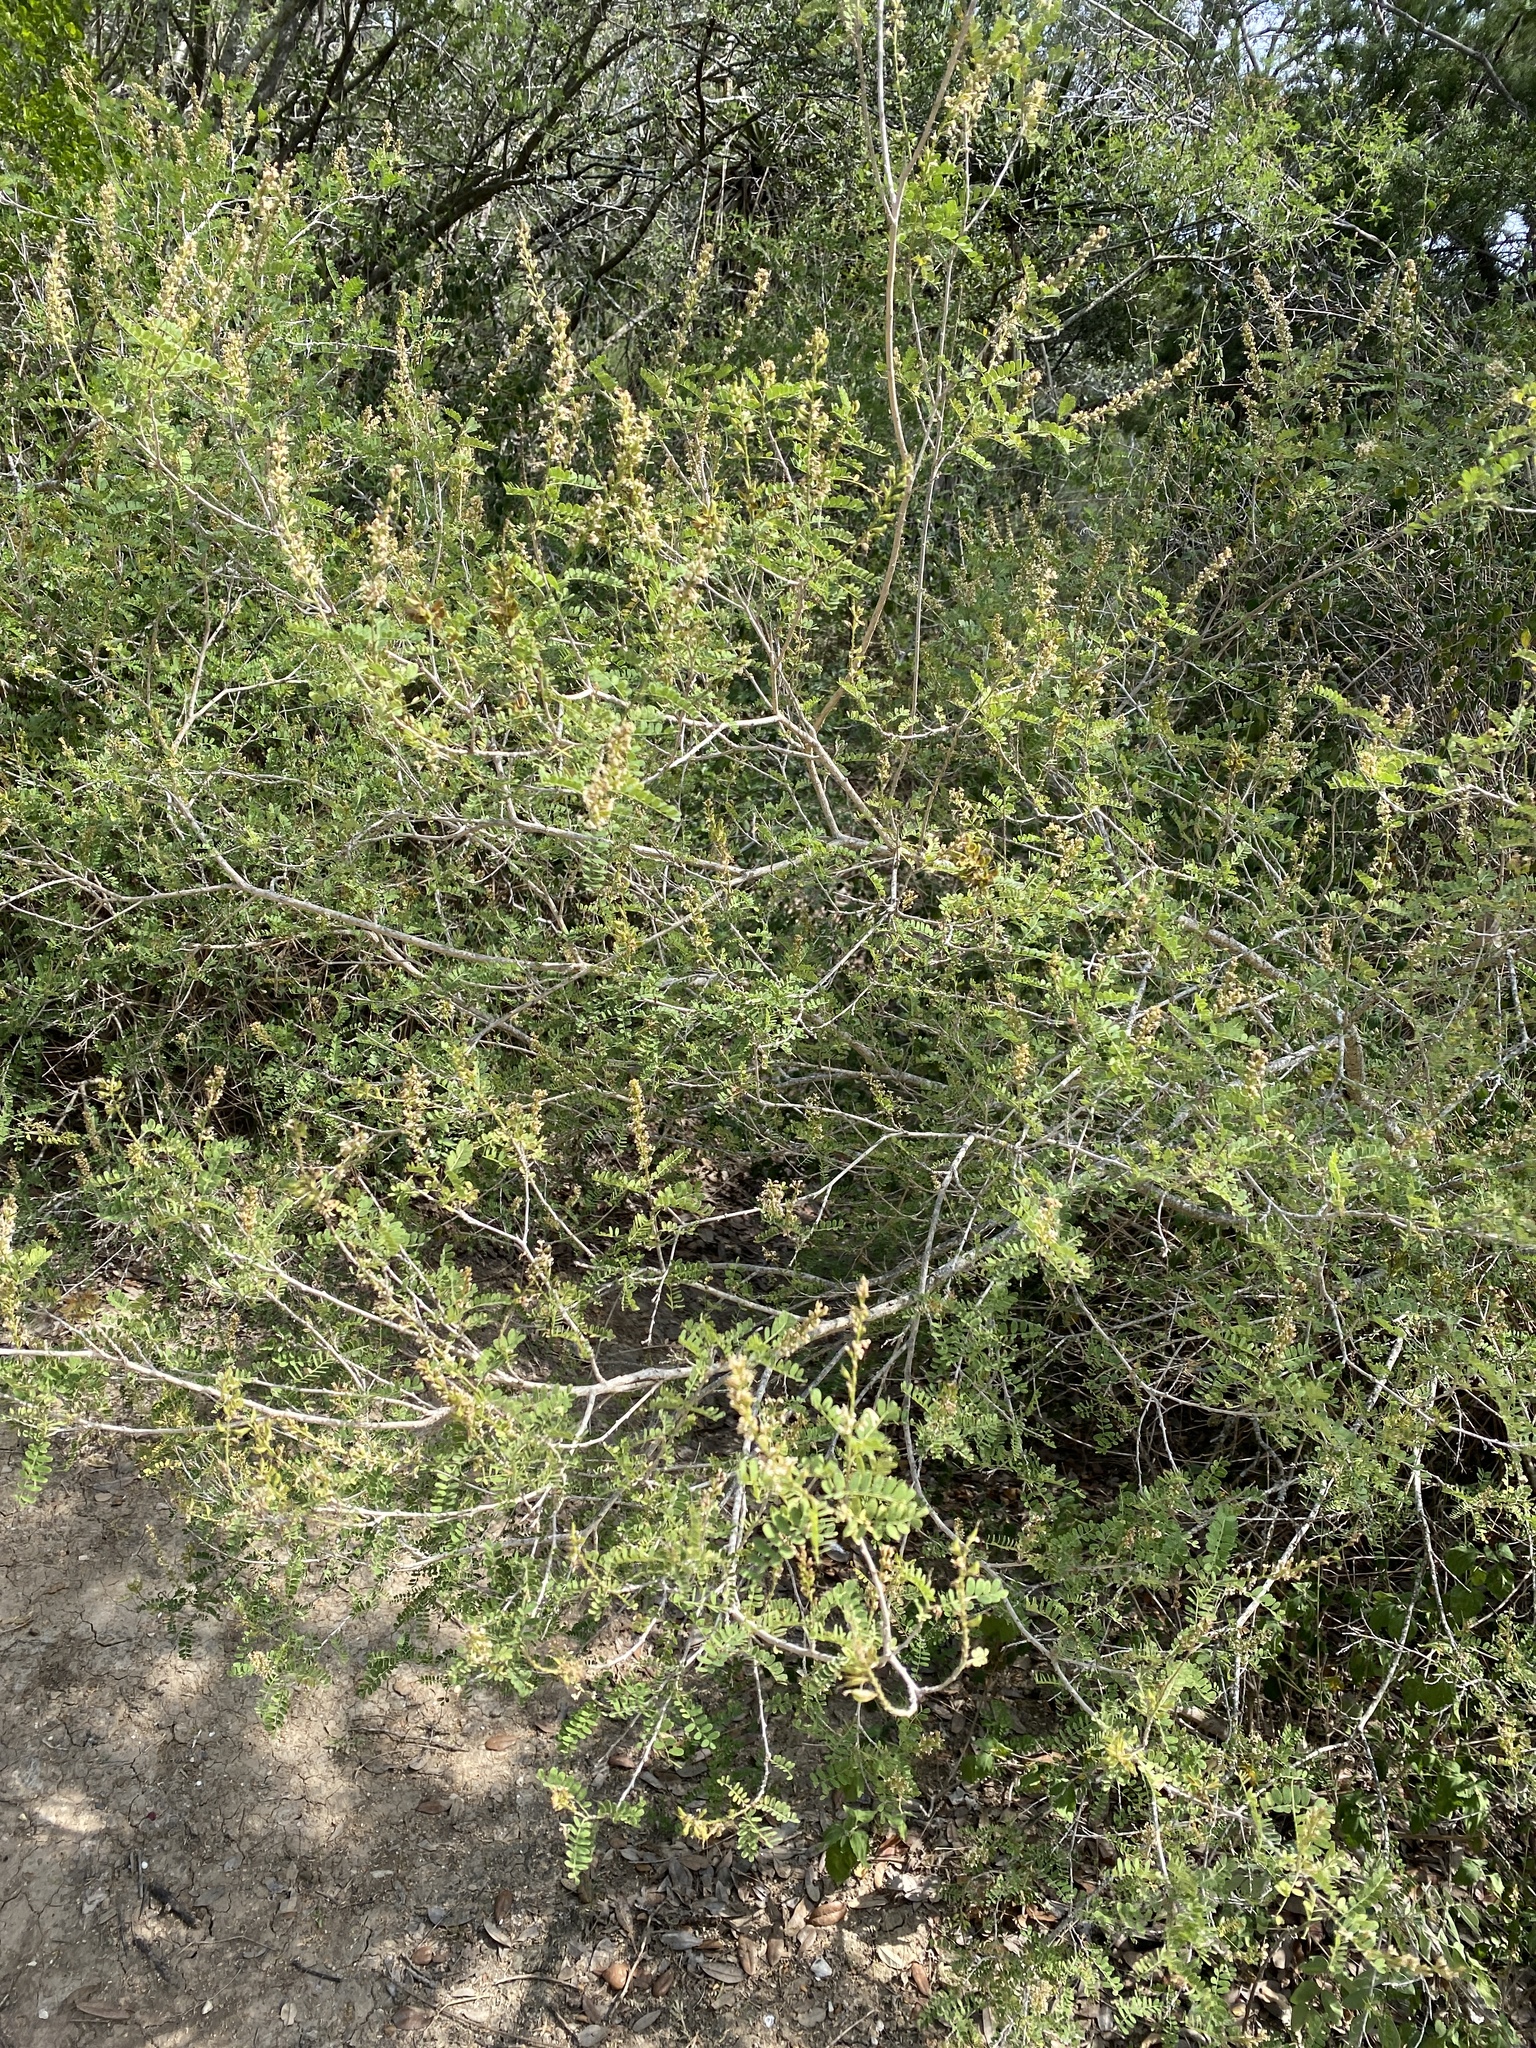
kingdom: Plantae
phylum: Tracheophyta
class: Magnoliopsida
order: Fabales
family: Fabaceae
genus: Eysenhardtia
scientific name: Eysenhardtia texana
